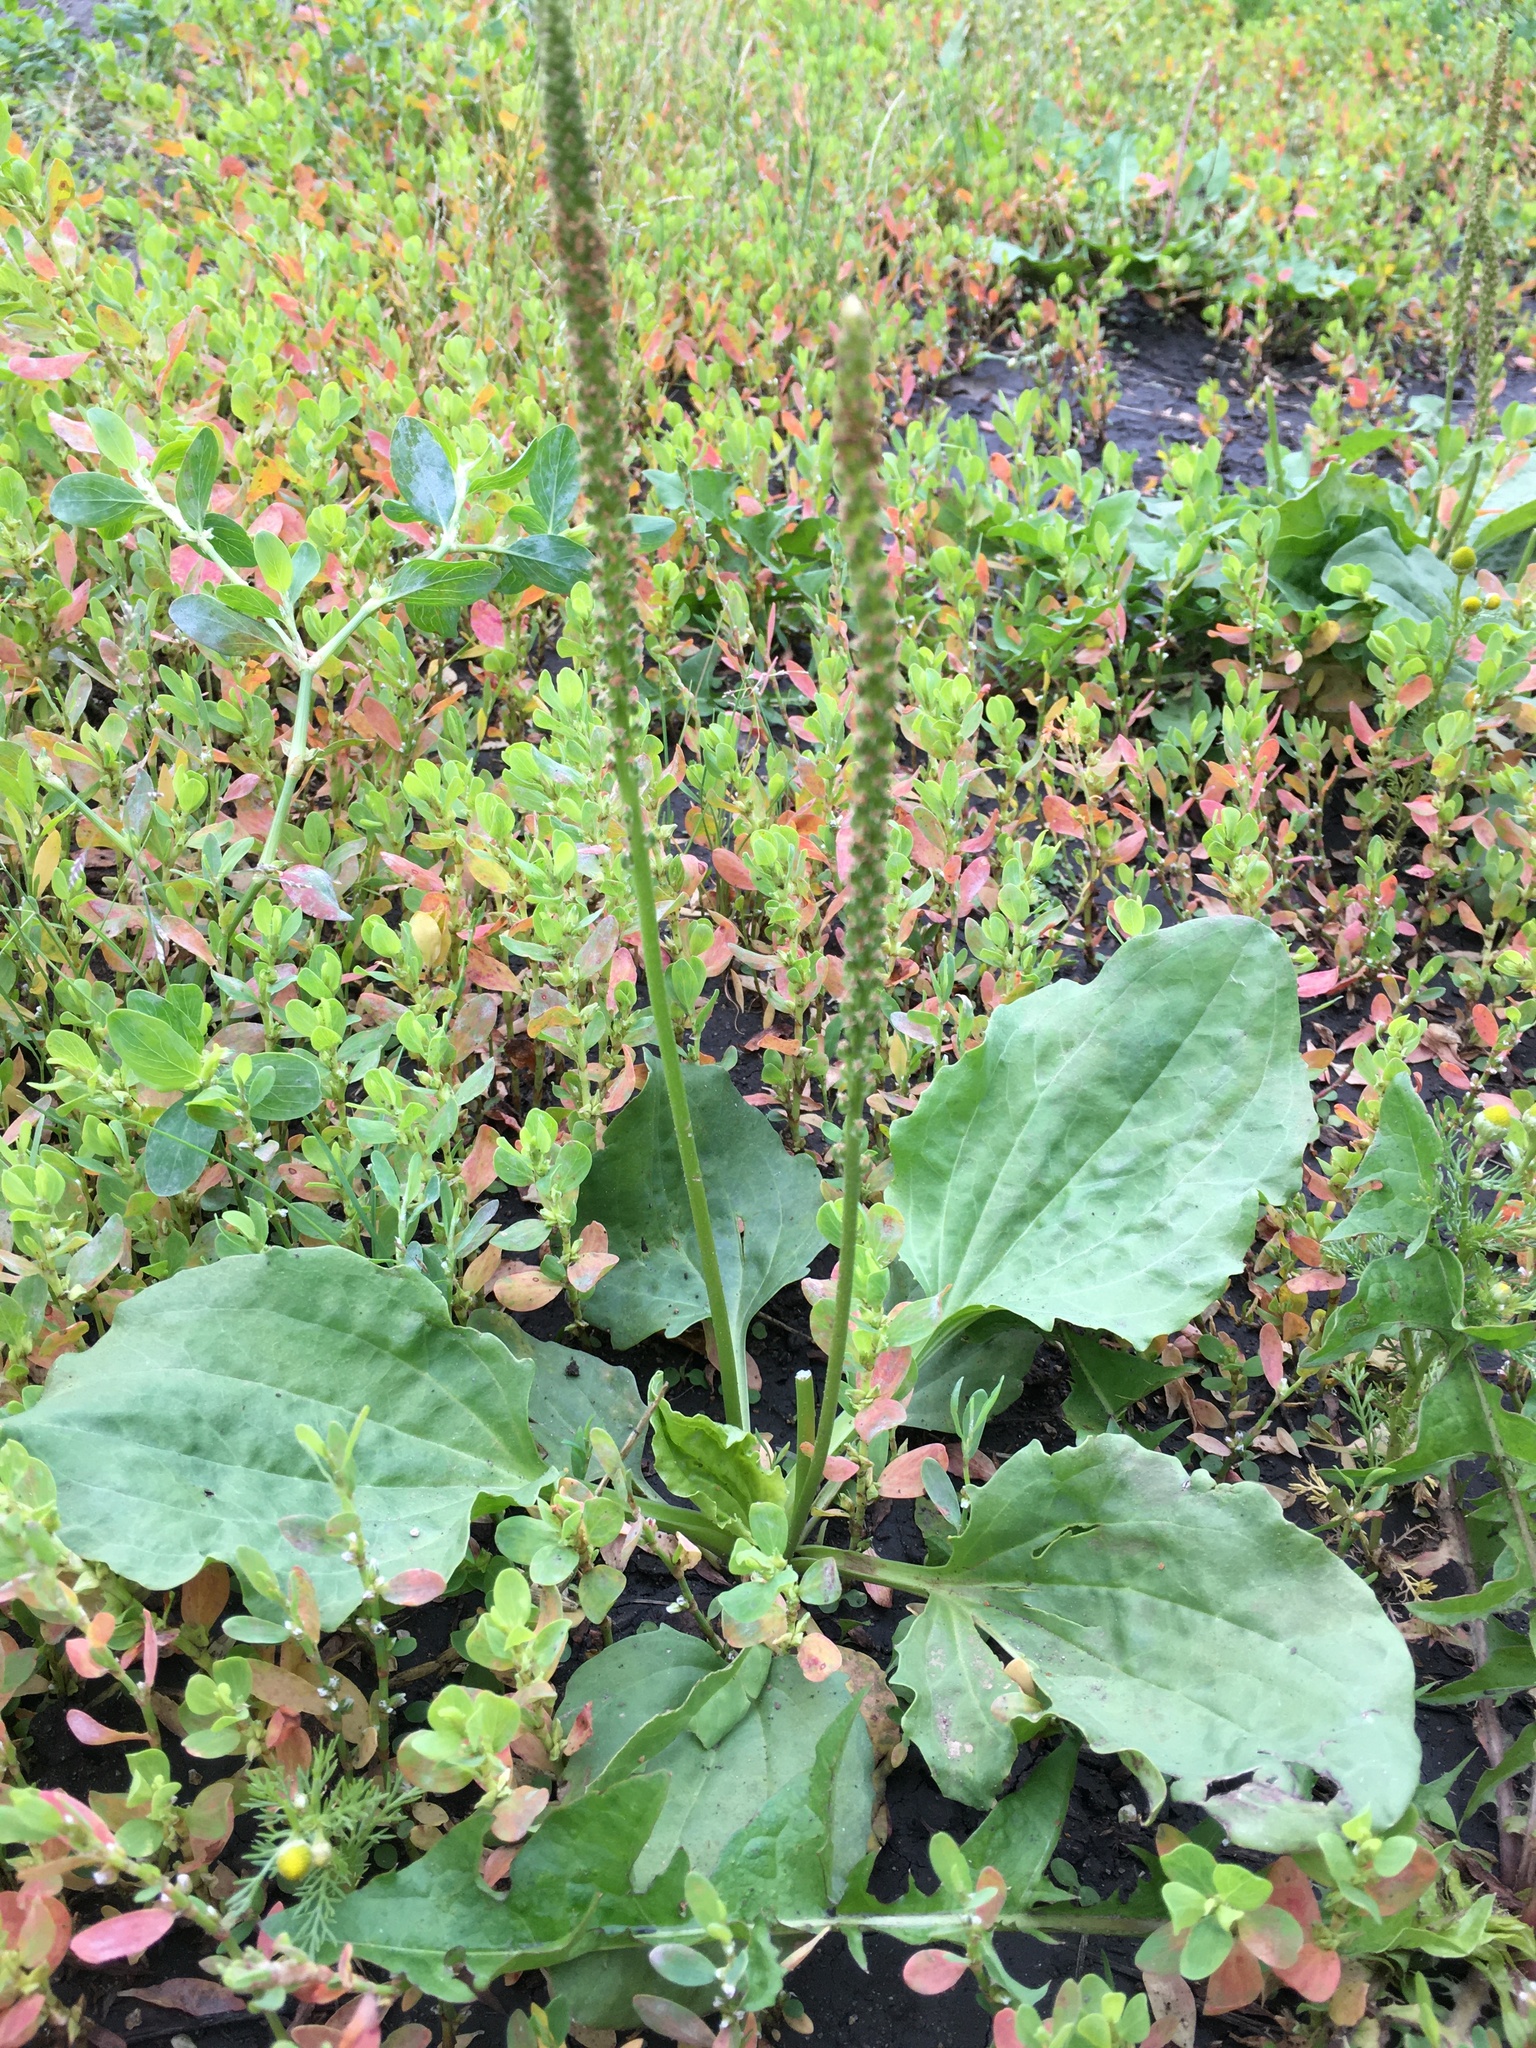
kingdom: Plantae
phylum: Tracheophyta
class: Magnoliopsida
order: Lamiales
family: Plantaginaceae
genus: Plantago
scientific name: Plantago major
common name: Common plantain
